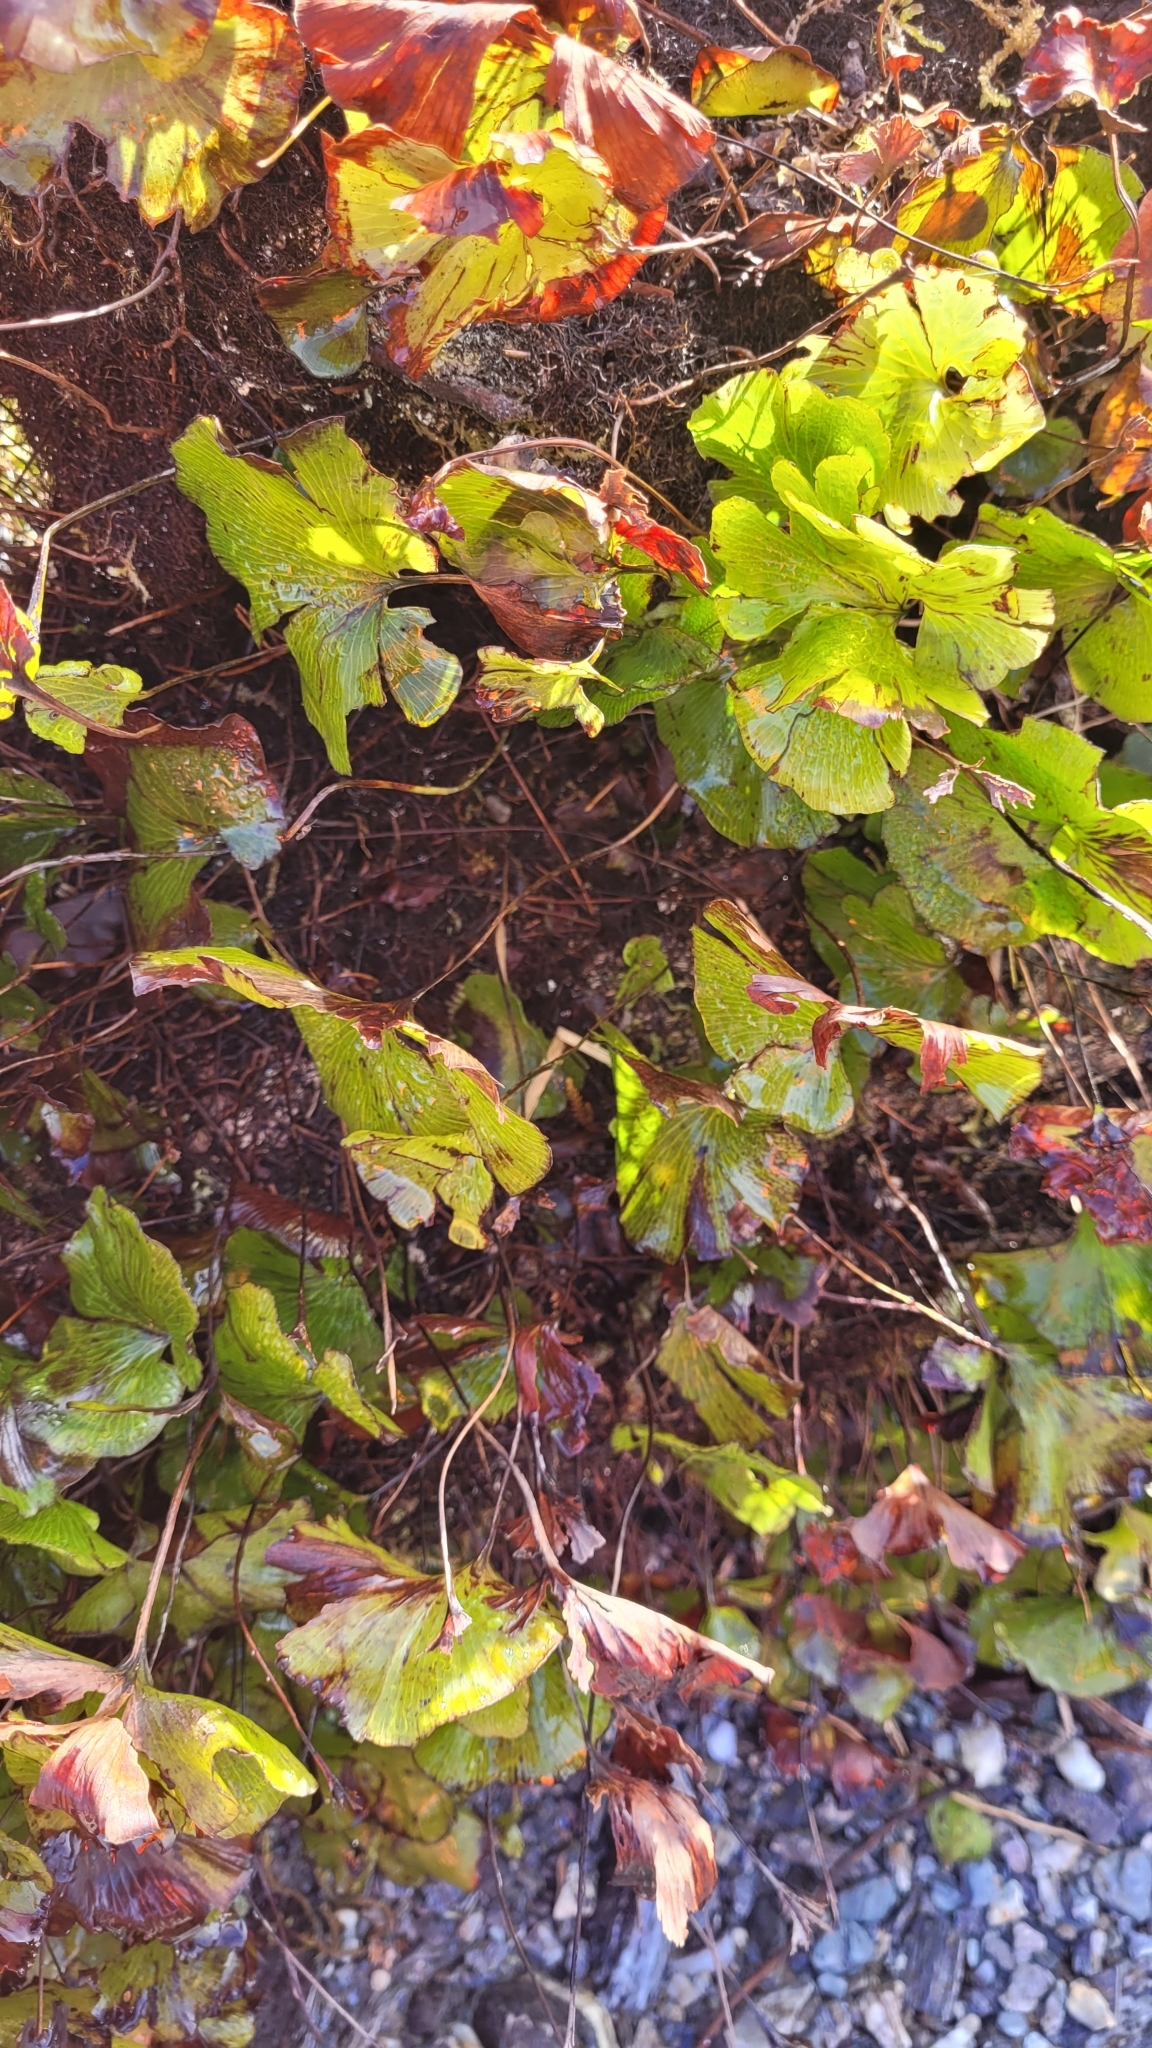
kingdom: Plantae
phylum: Tracheophyta
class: Polypodiopsida
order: Hymenophyllales
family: Hymenophyllaceae
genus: Hymenophyllum
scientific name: Hymenophyllum nephrophyllum
